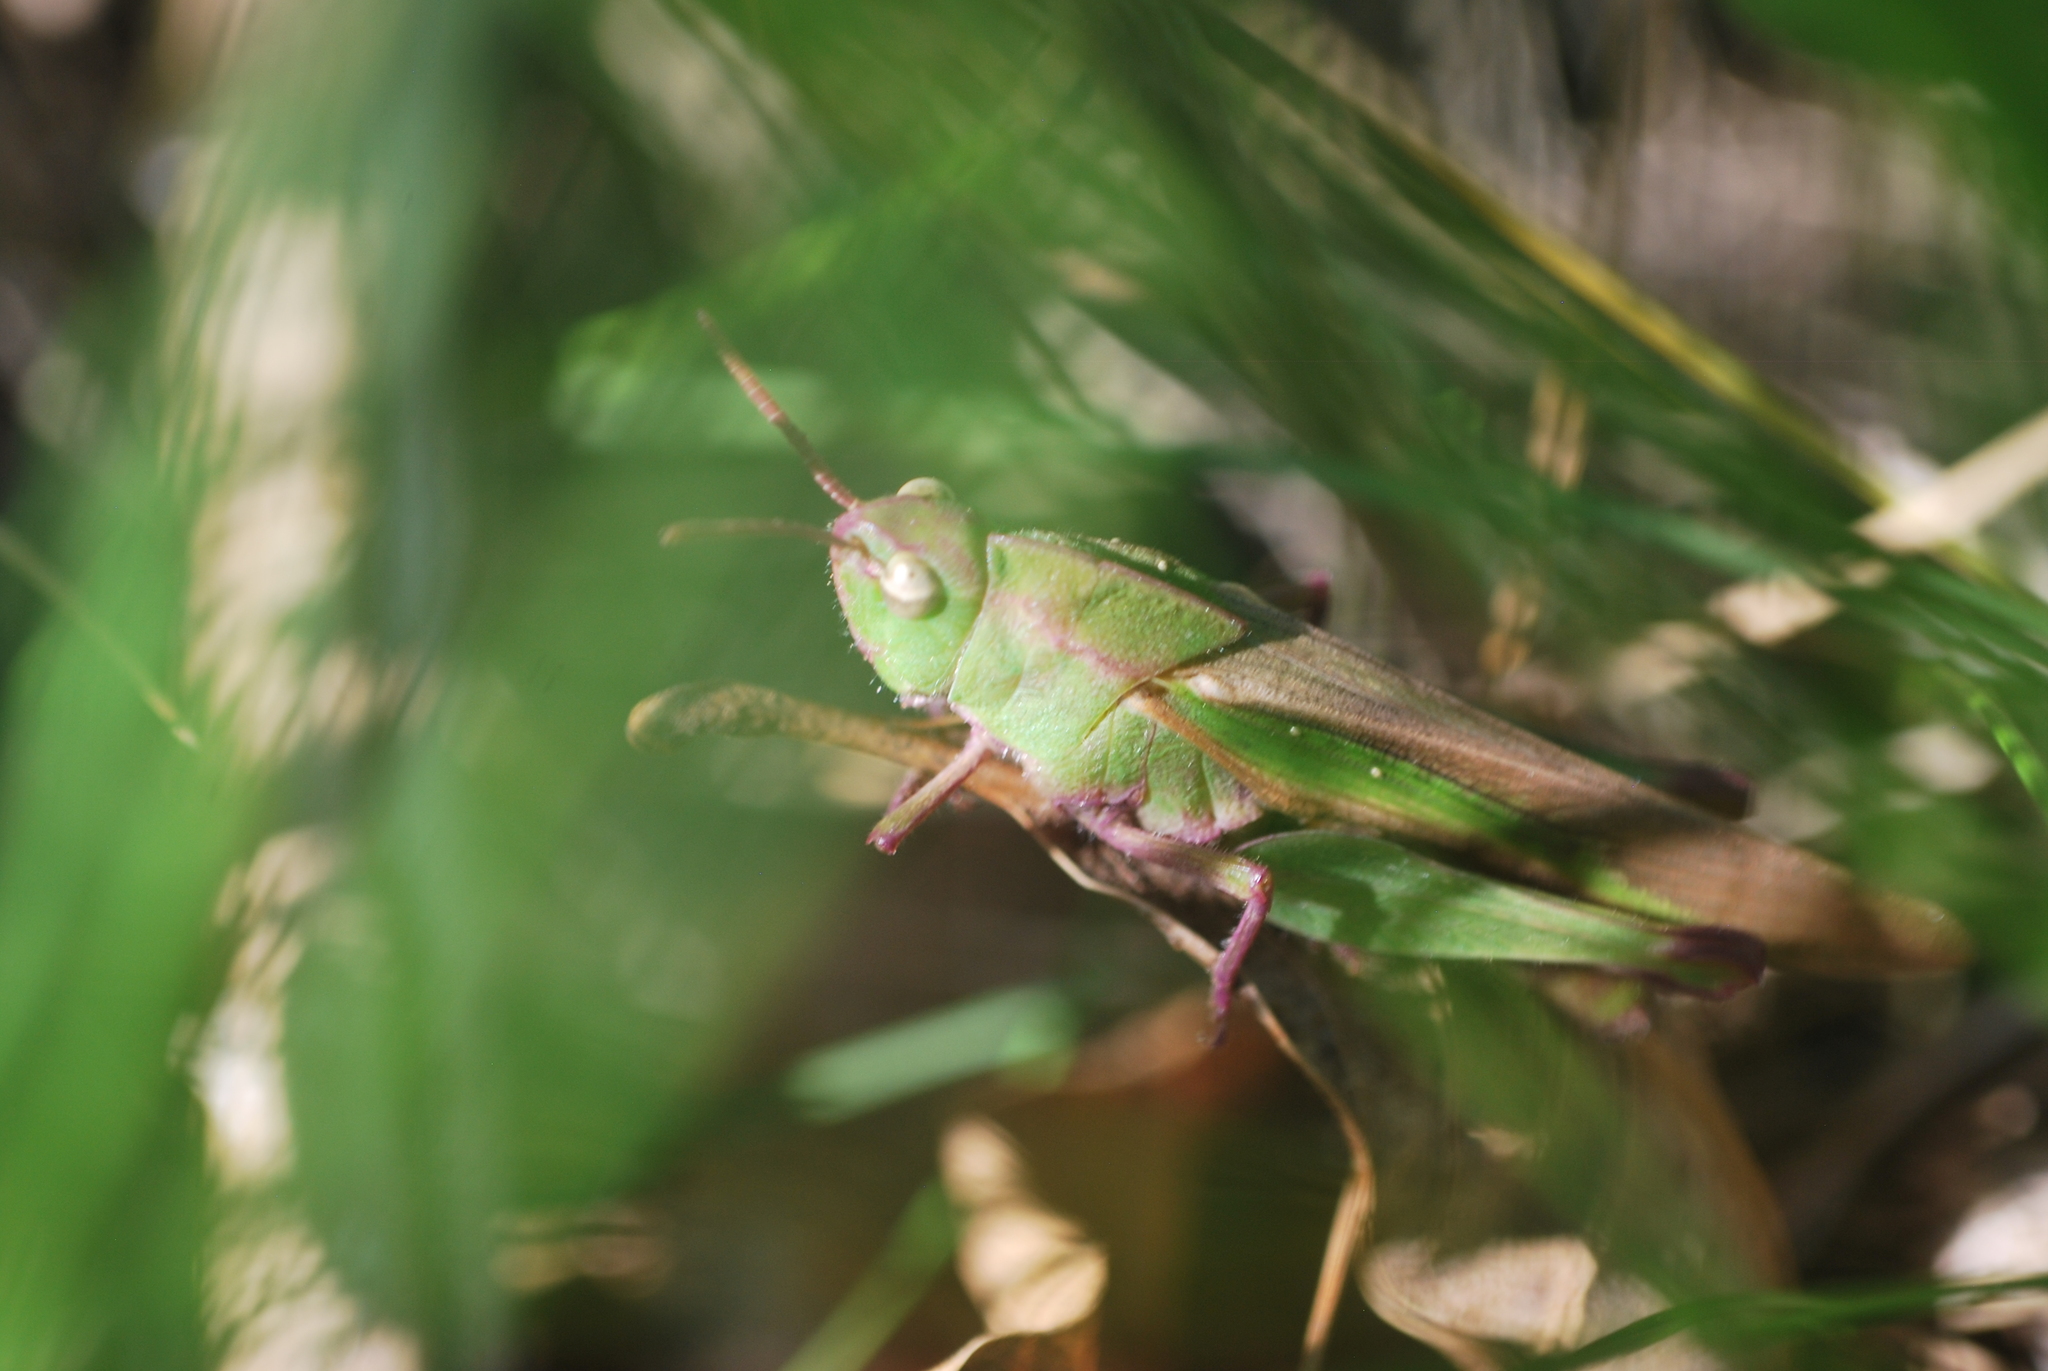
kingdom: Animalia
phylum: Arthropoda
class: Insecta
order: Orthoptera
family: Acrididae
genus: Chortophaga
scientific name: Chortophaga viridifasciata
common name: Green-striped grasshopper
